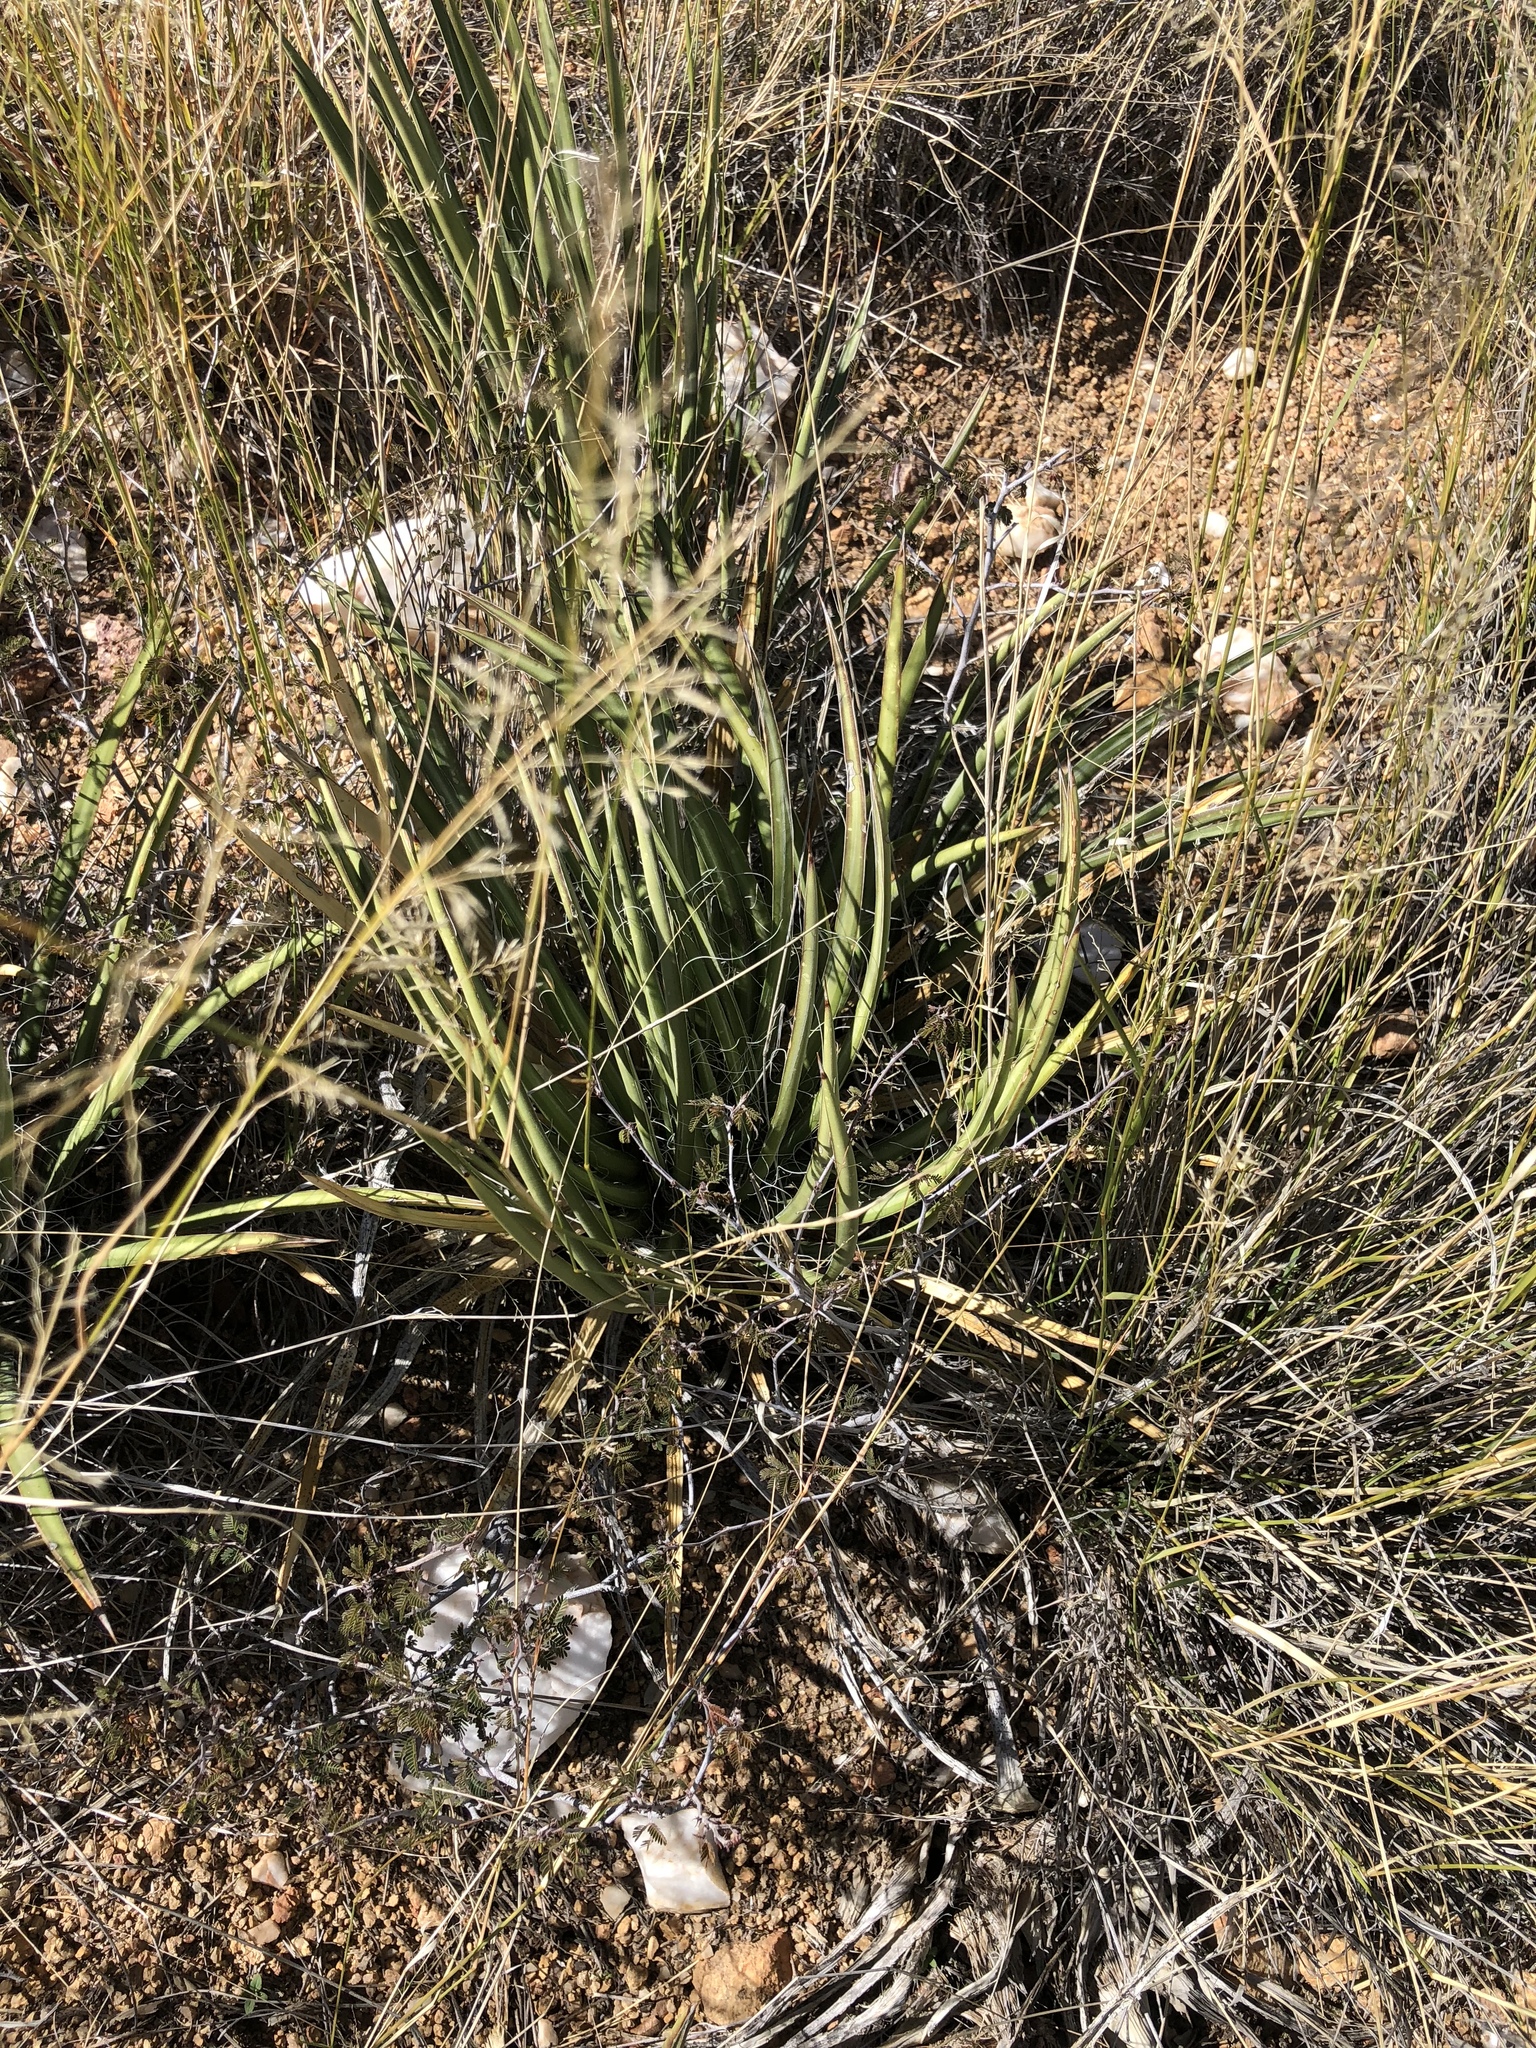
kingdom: Plantae
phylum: Tracheophyta
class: Liliopsida
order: Asparagales
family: Asparagaceae
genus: Agave
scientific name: Agave schottii
